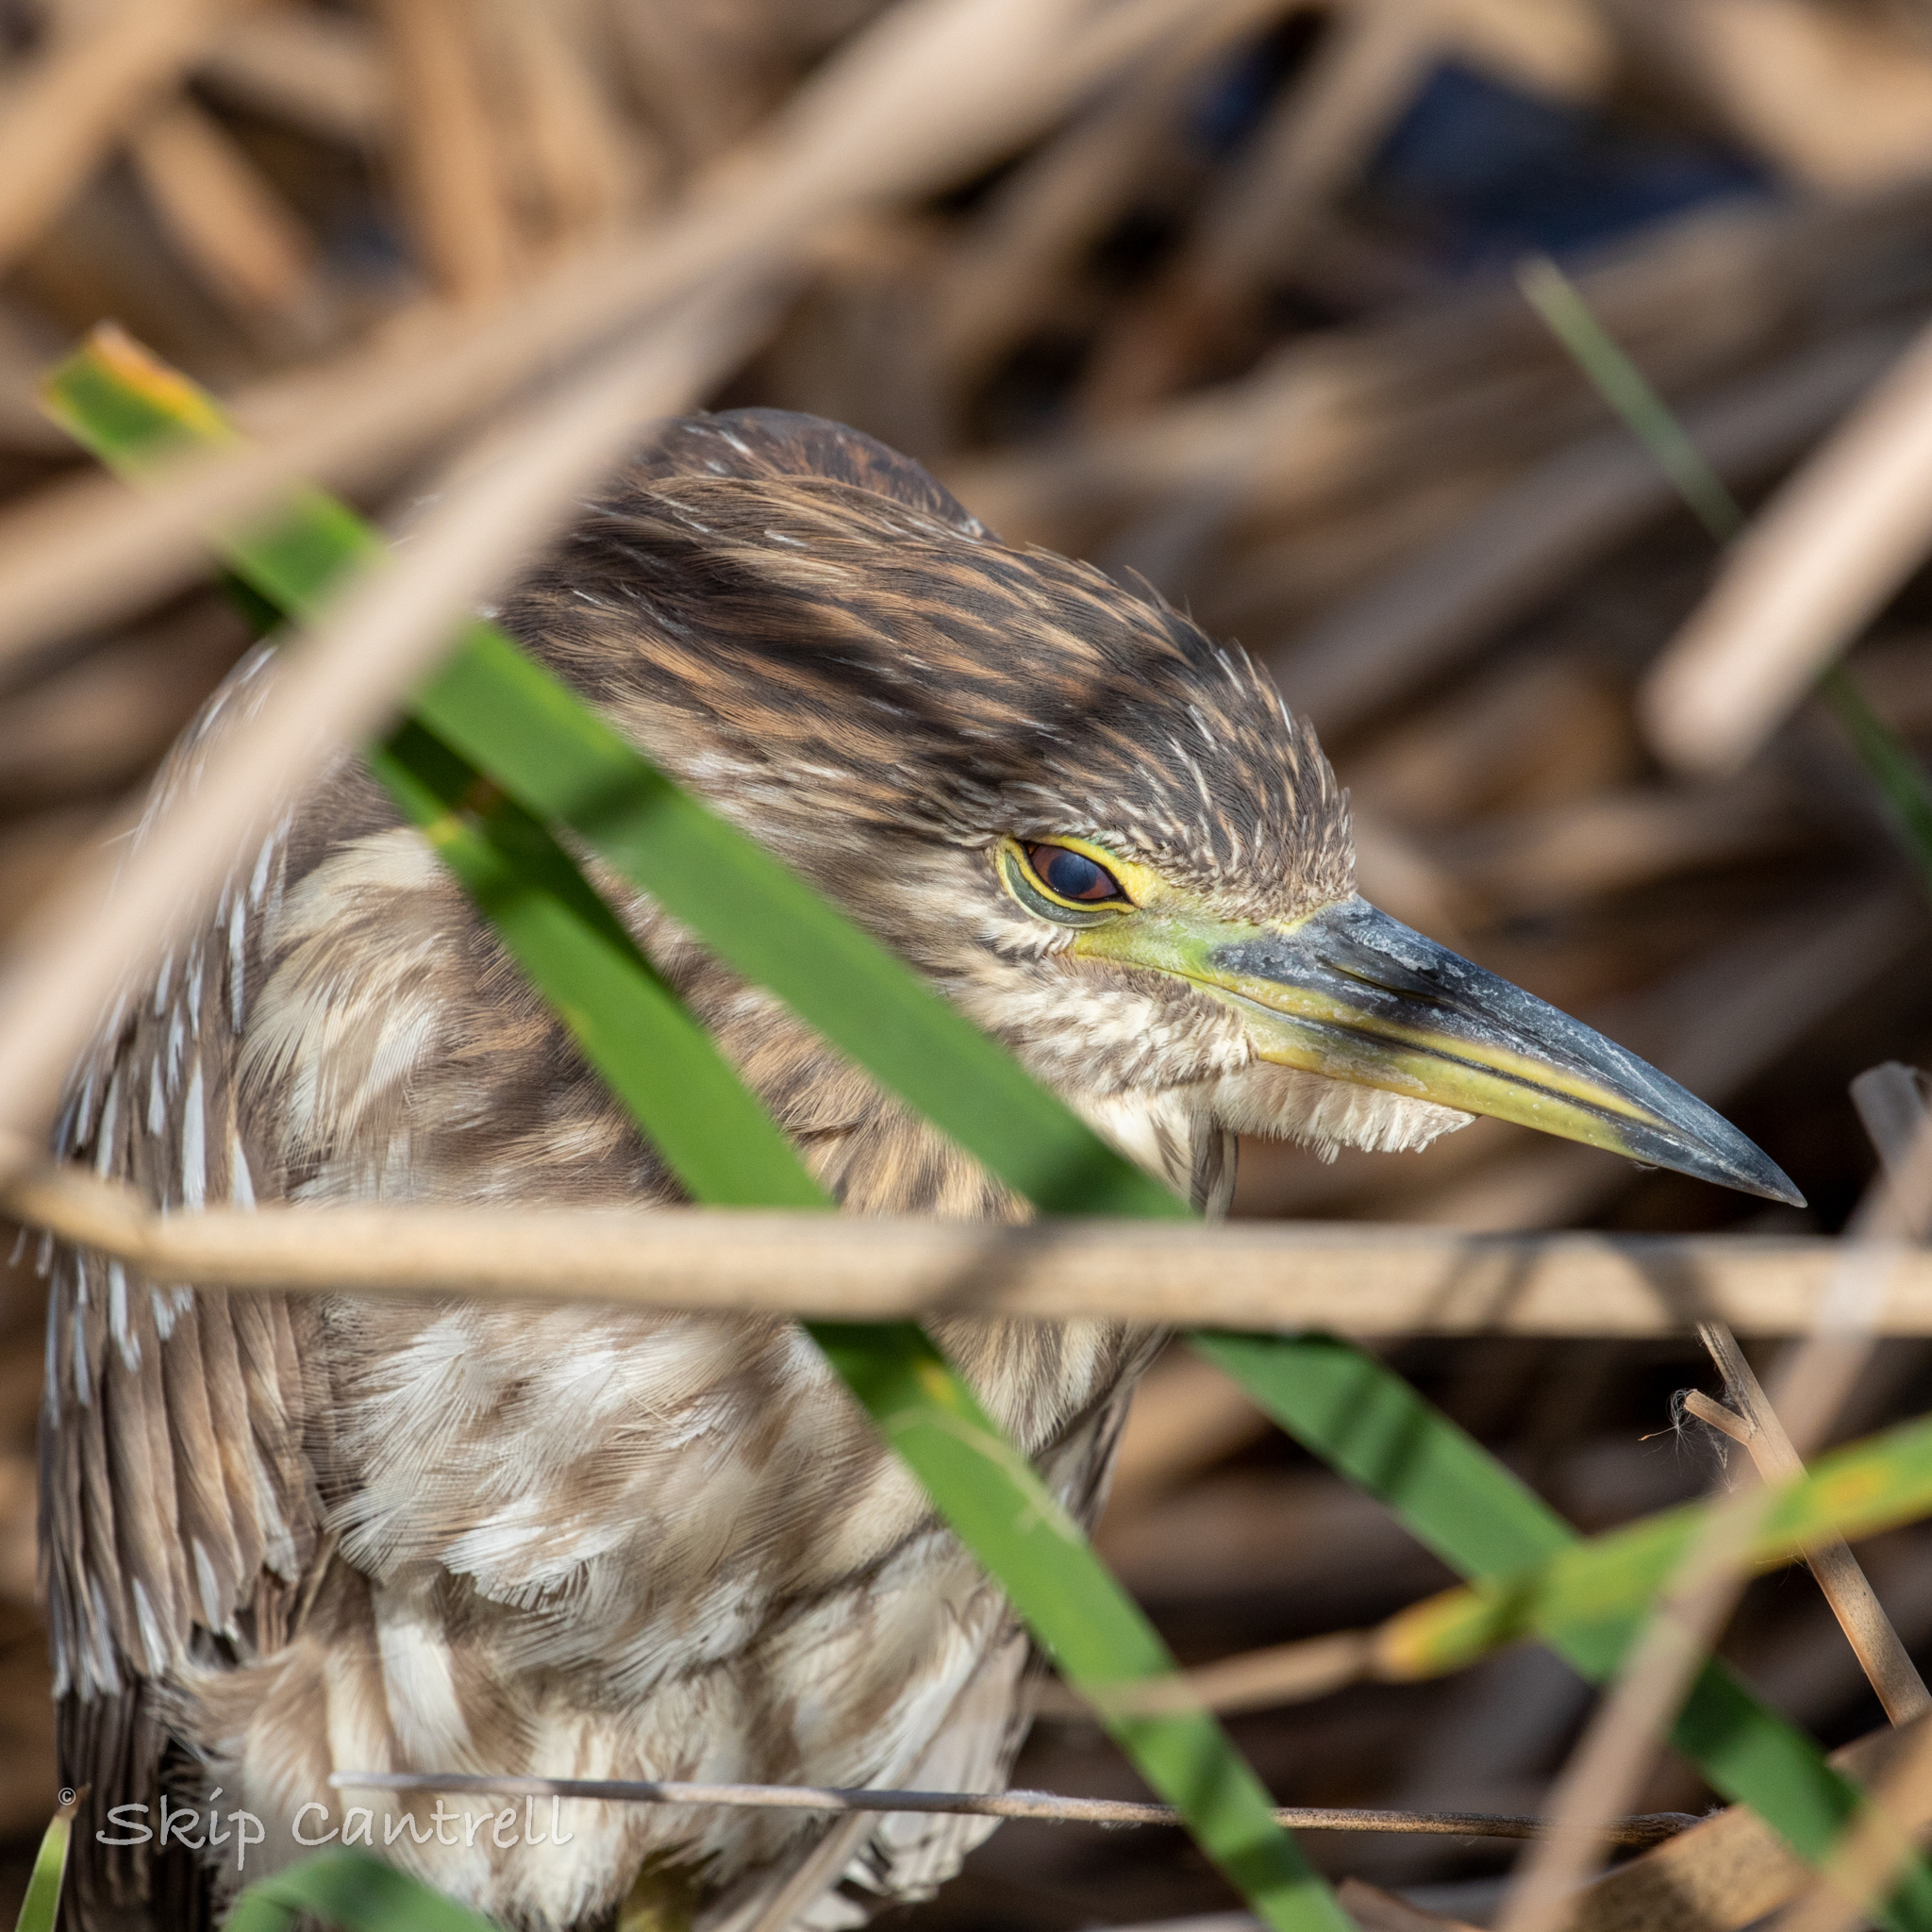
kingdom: Animalia
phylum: Chordata
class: Aves
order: Pelecaniformes
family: Ardeidae
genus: Nycticorax
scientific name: Nycticorax nycticorax
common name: Black-crowned night heron
